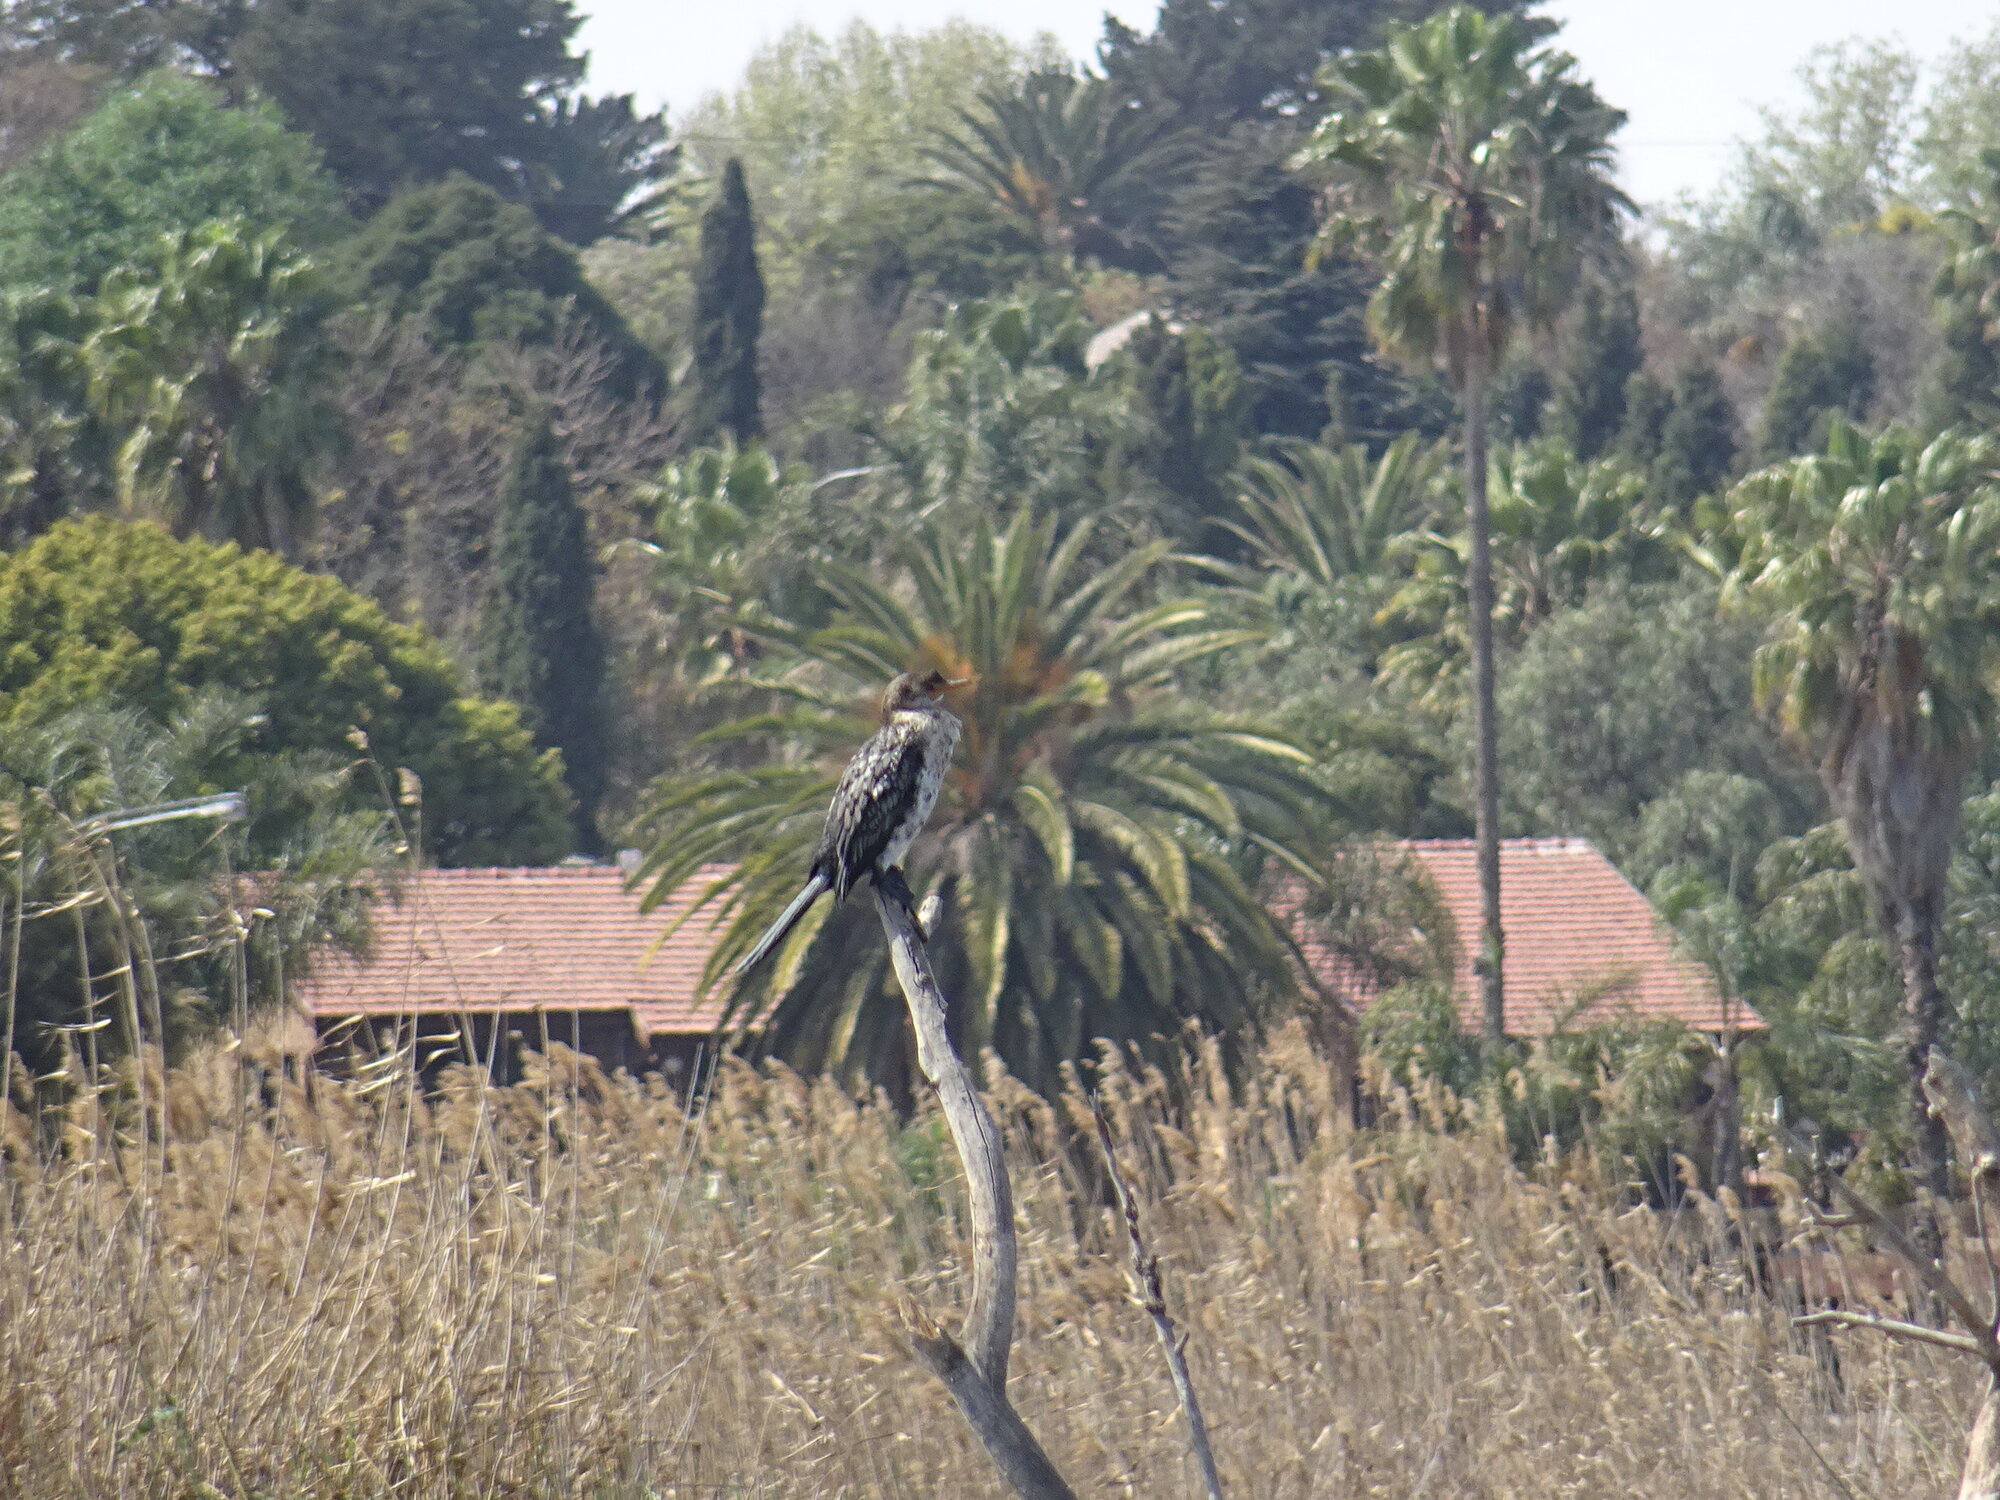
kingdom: Animalia
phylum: Chordata
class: Aves
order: Suliformes
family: Phalacrocoracidae
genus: Microcarbo
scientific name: Microcarbo africanus
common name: Long-tailed cormorant
